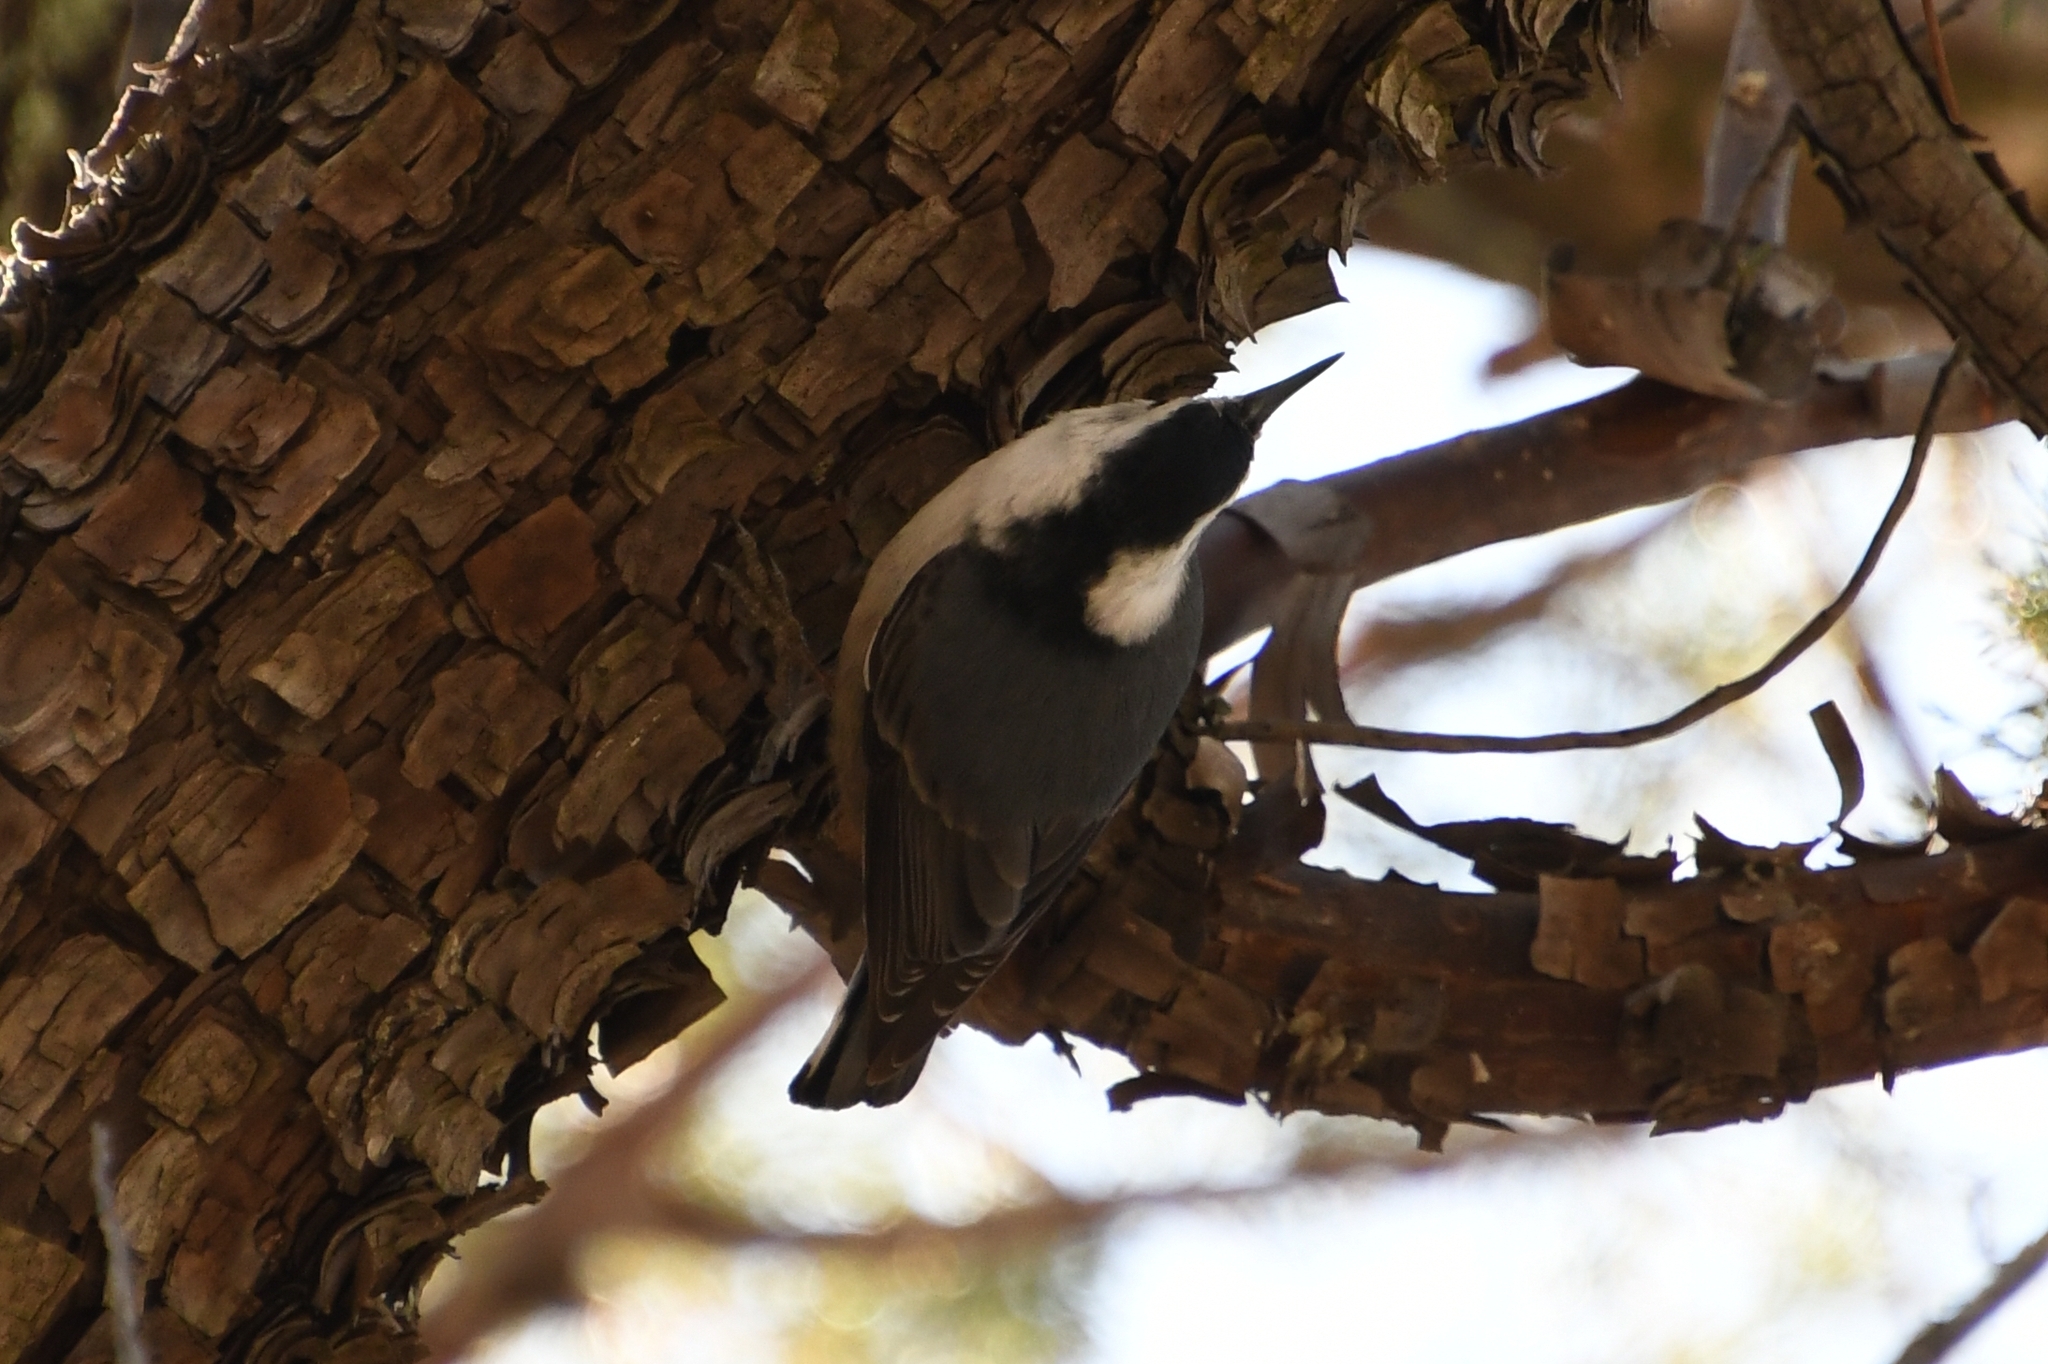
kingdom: Animalia
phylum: Chordata
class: Aves
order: Passeriformes
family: Sittidae
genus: Sitta
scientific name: Sitta carolinensis
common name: White-breasted nuthatch
